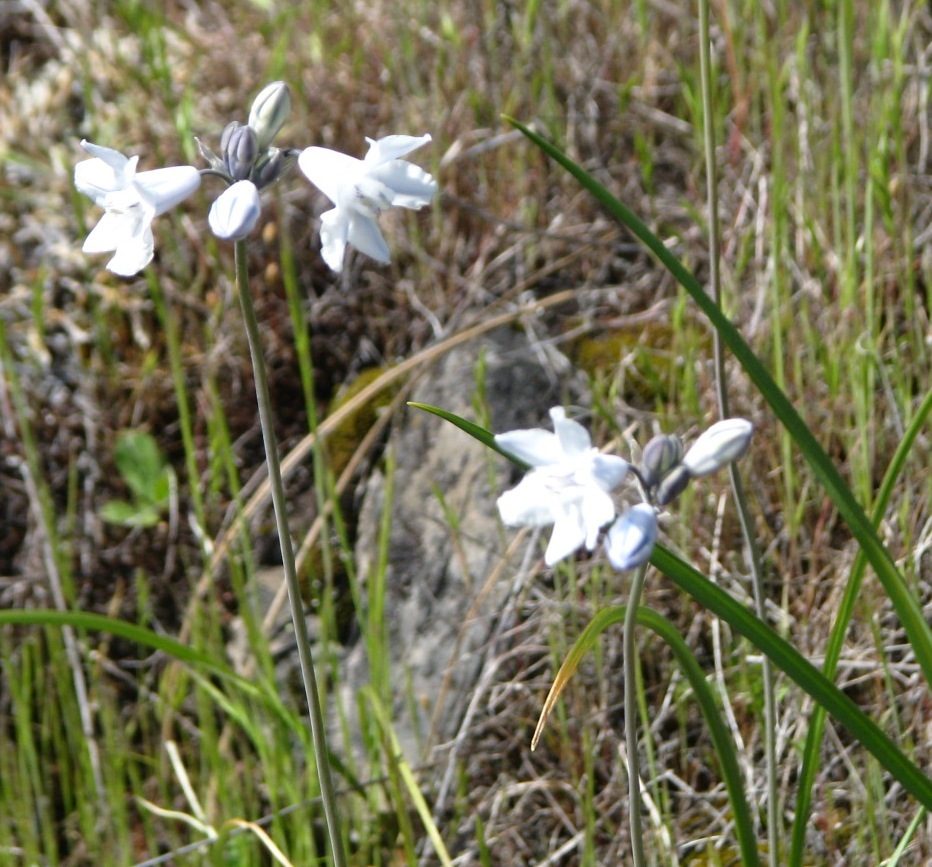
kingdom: Plantae
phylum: Tracheophyta
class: Liliopsida
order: Asparagales
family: Asparagaceae
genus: Triteleia
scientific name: Triteleia grandiflora
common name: Wild hyacinth
